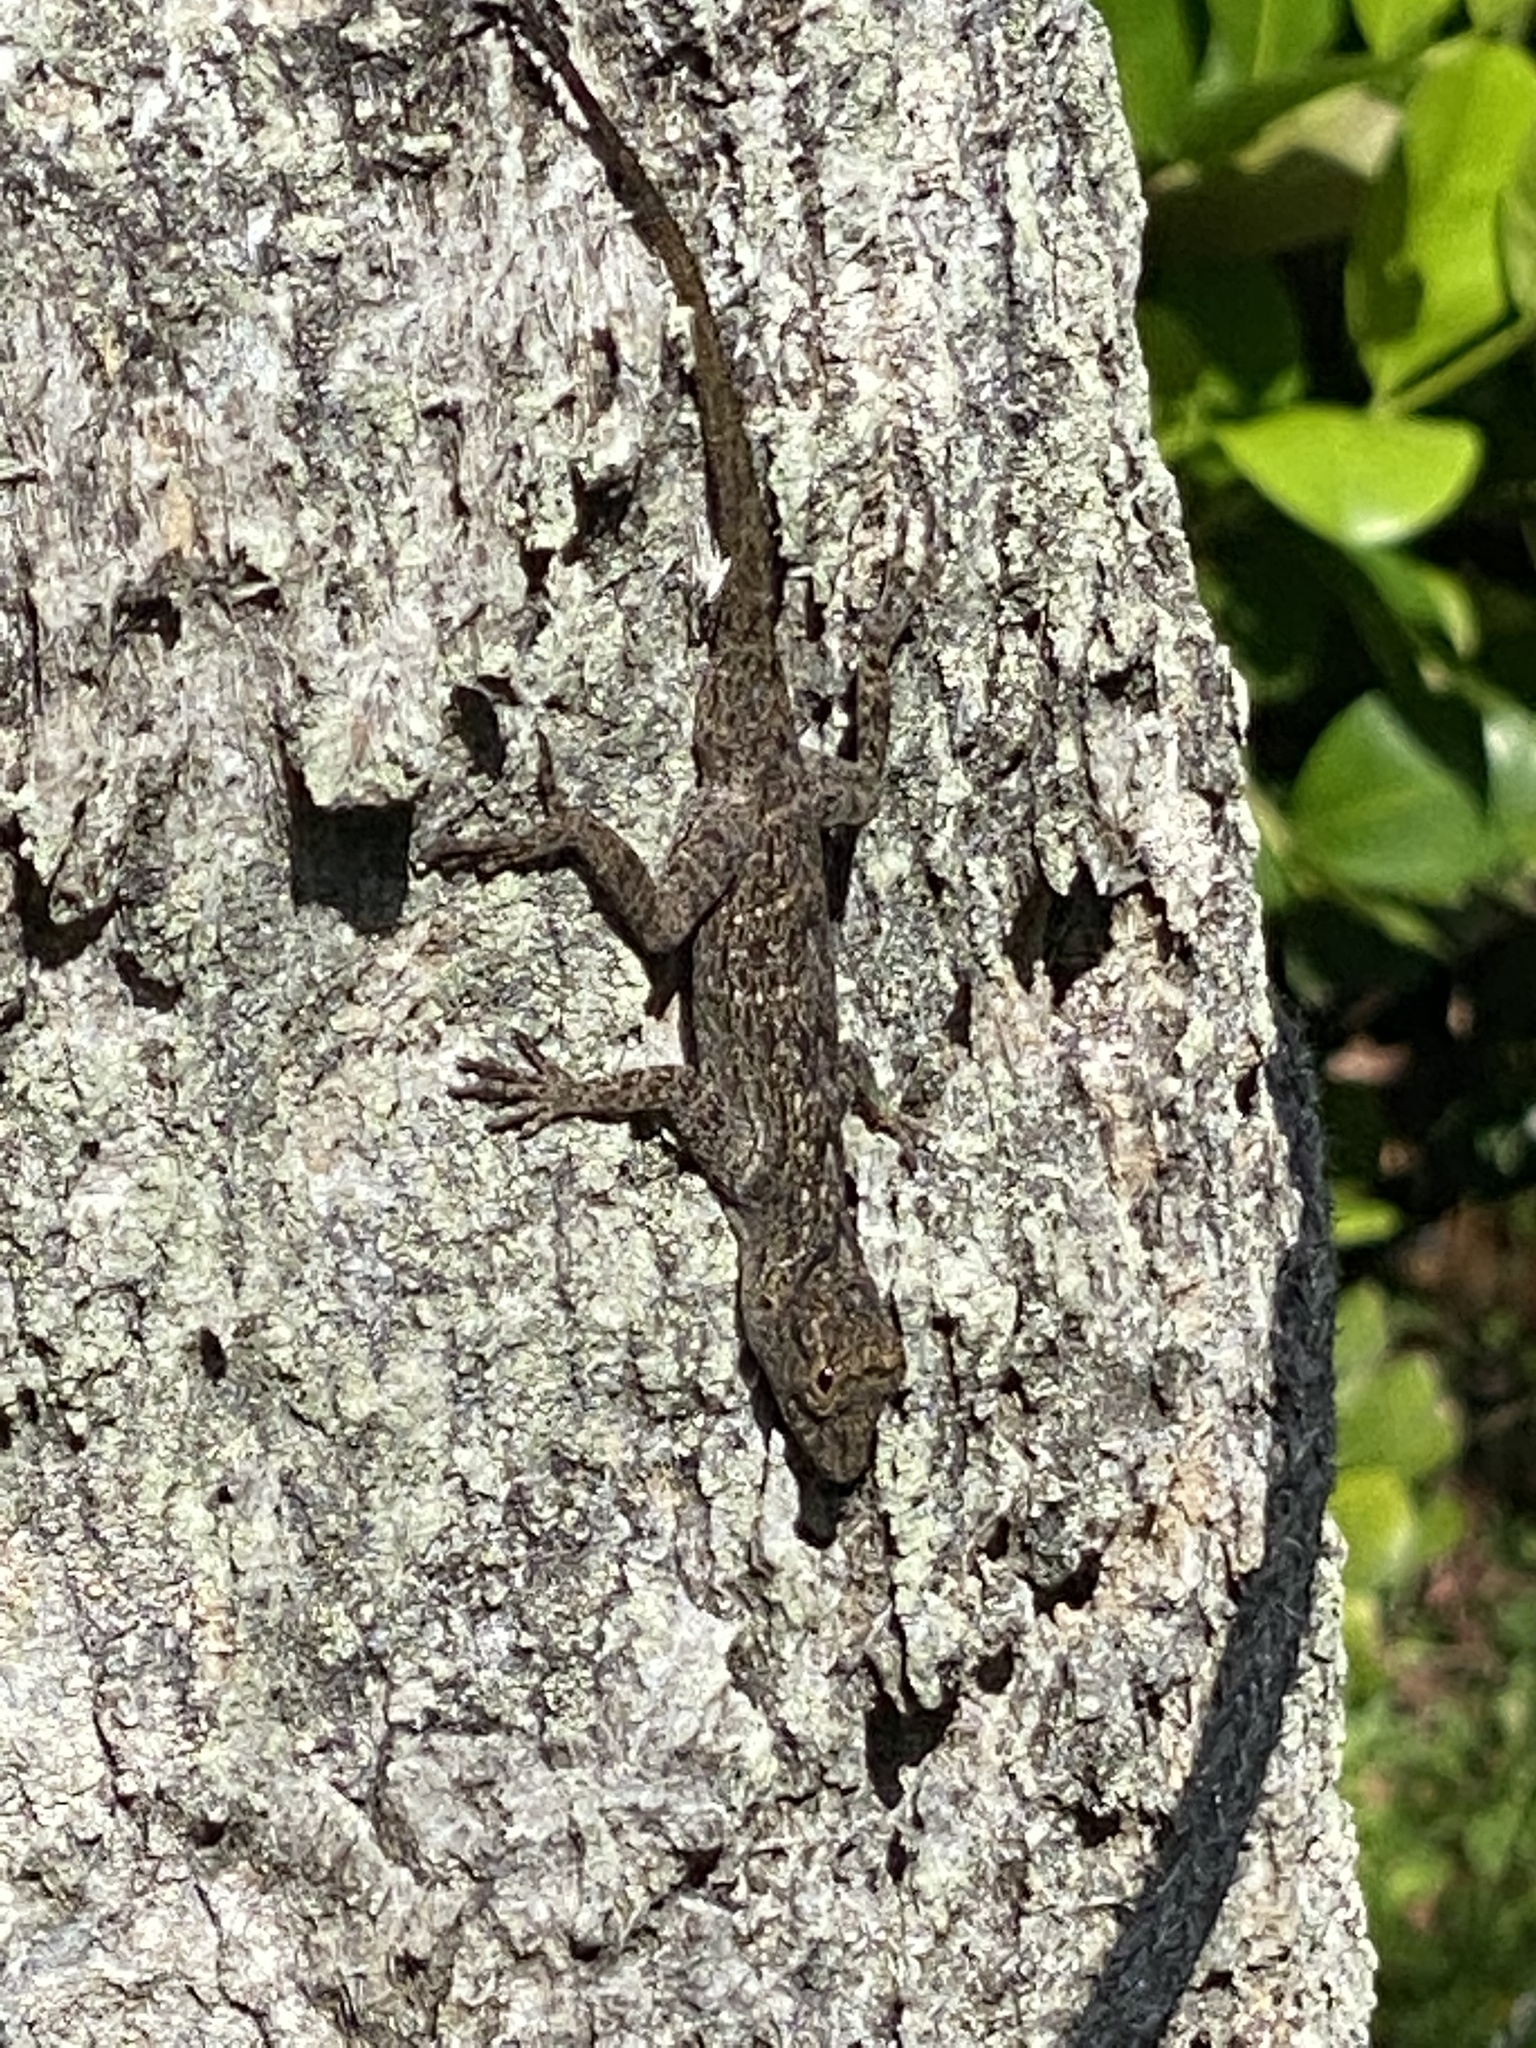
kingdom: Animalia
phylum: Chordata
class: Squamata
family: Dactyloidae
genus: Anolis
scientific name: Anolis distichus
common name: Bark anole
